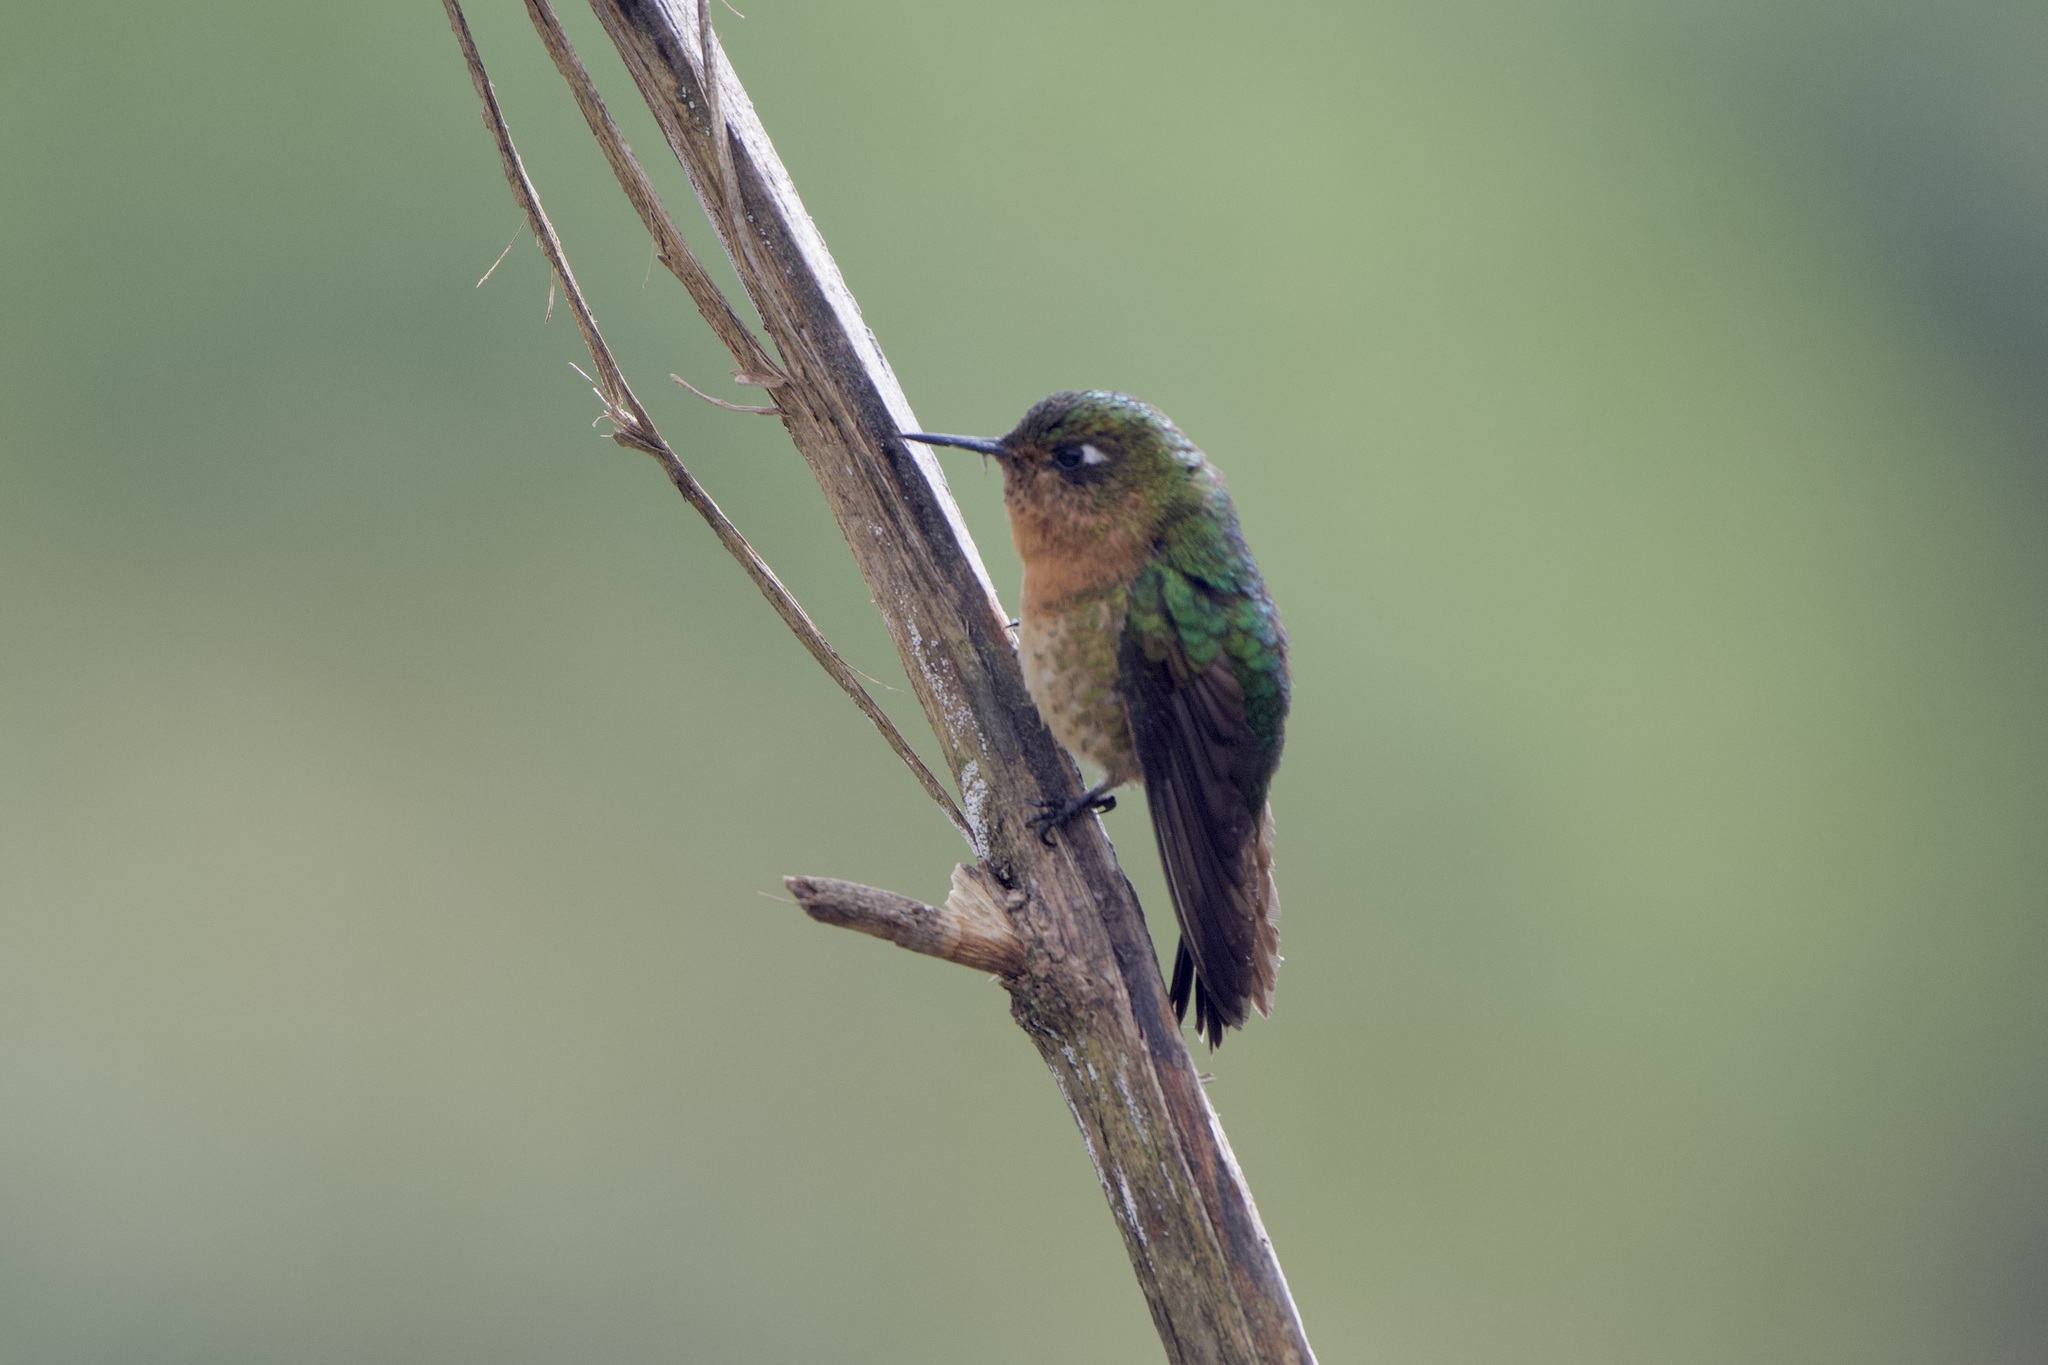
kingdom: Animalia
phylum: Chordata
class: Aves
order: Apodiformes
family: Trochilidae
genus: Metallura
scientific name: Metallura tyrianthina
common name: Tyrian metaltail
